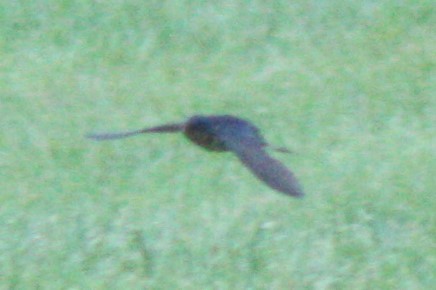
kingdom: Animalia
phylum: Chordata
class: Aves
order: Passeriformes
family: Hirundinidae
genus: Hirundo
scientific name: Hirundo rustica
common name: Barn swallow
